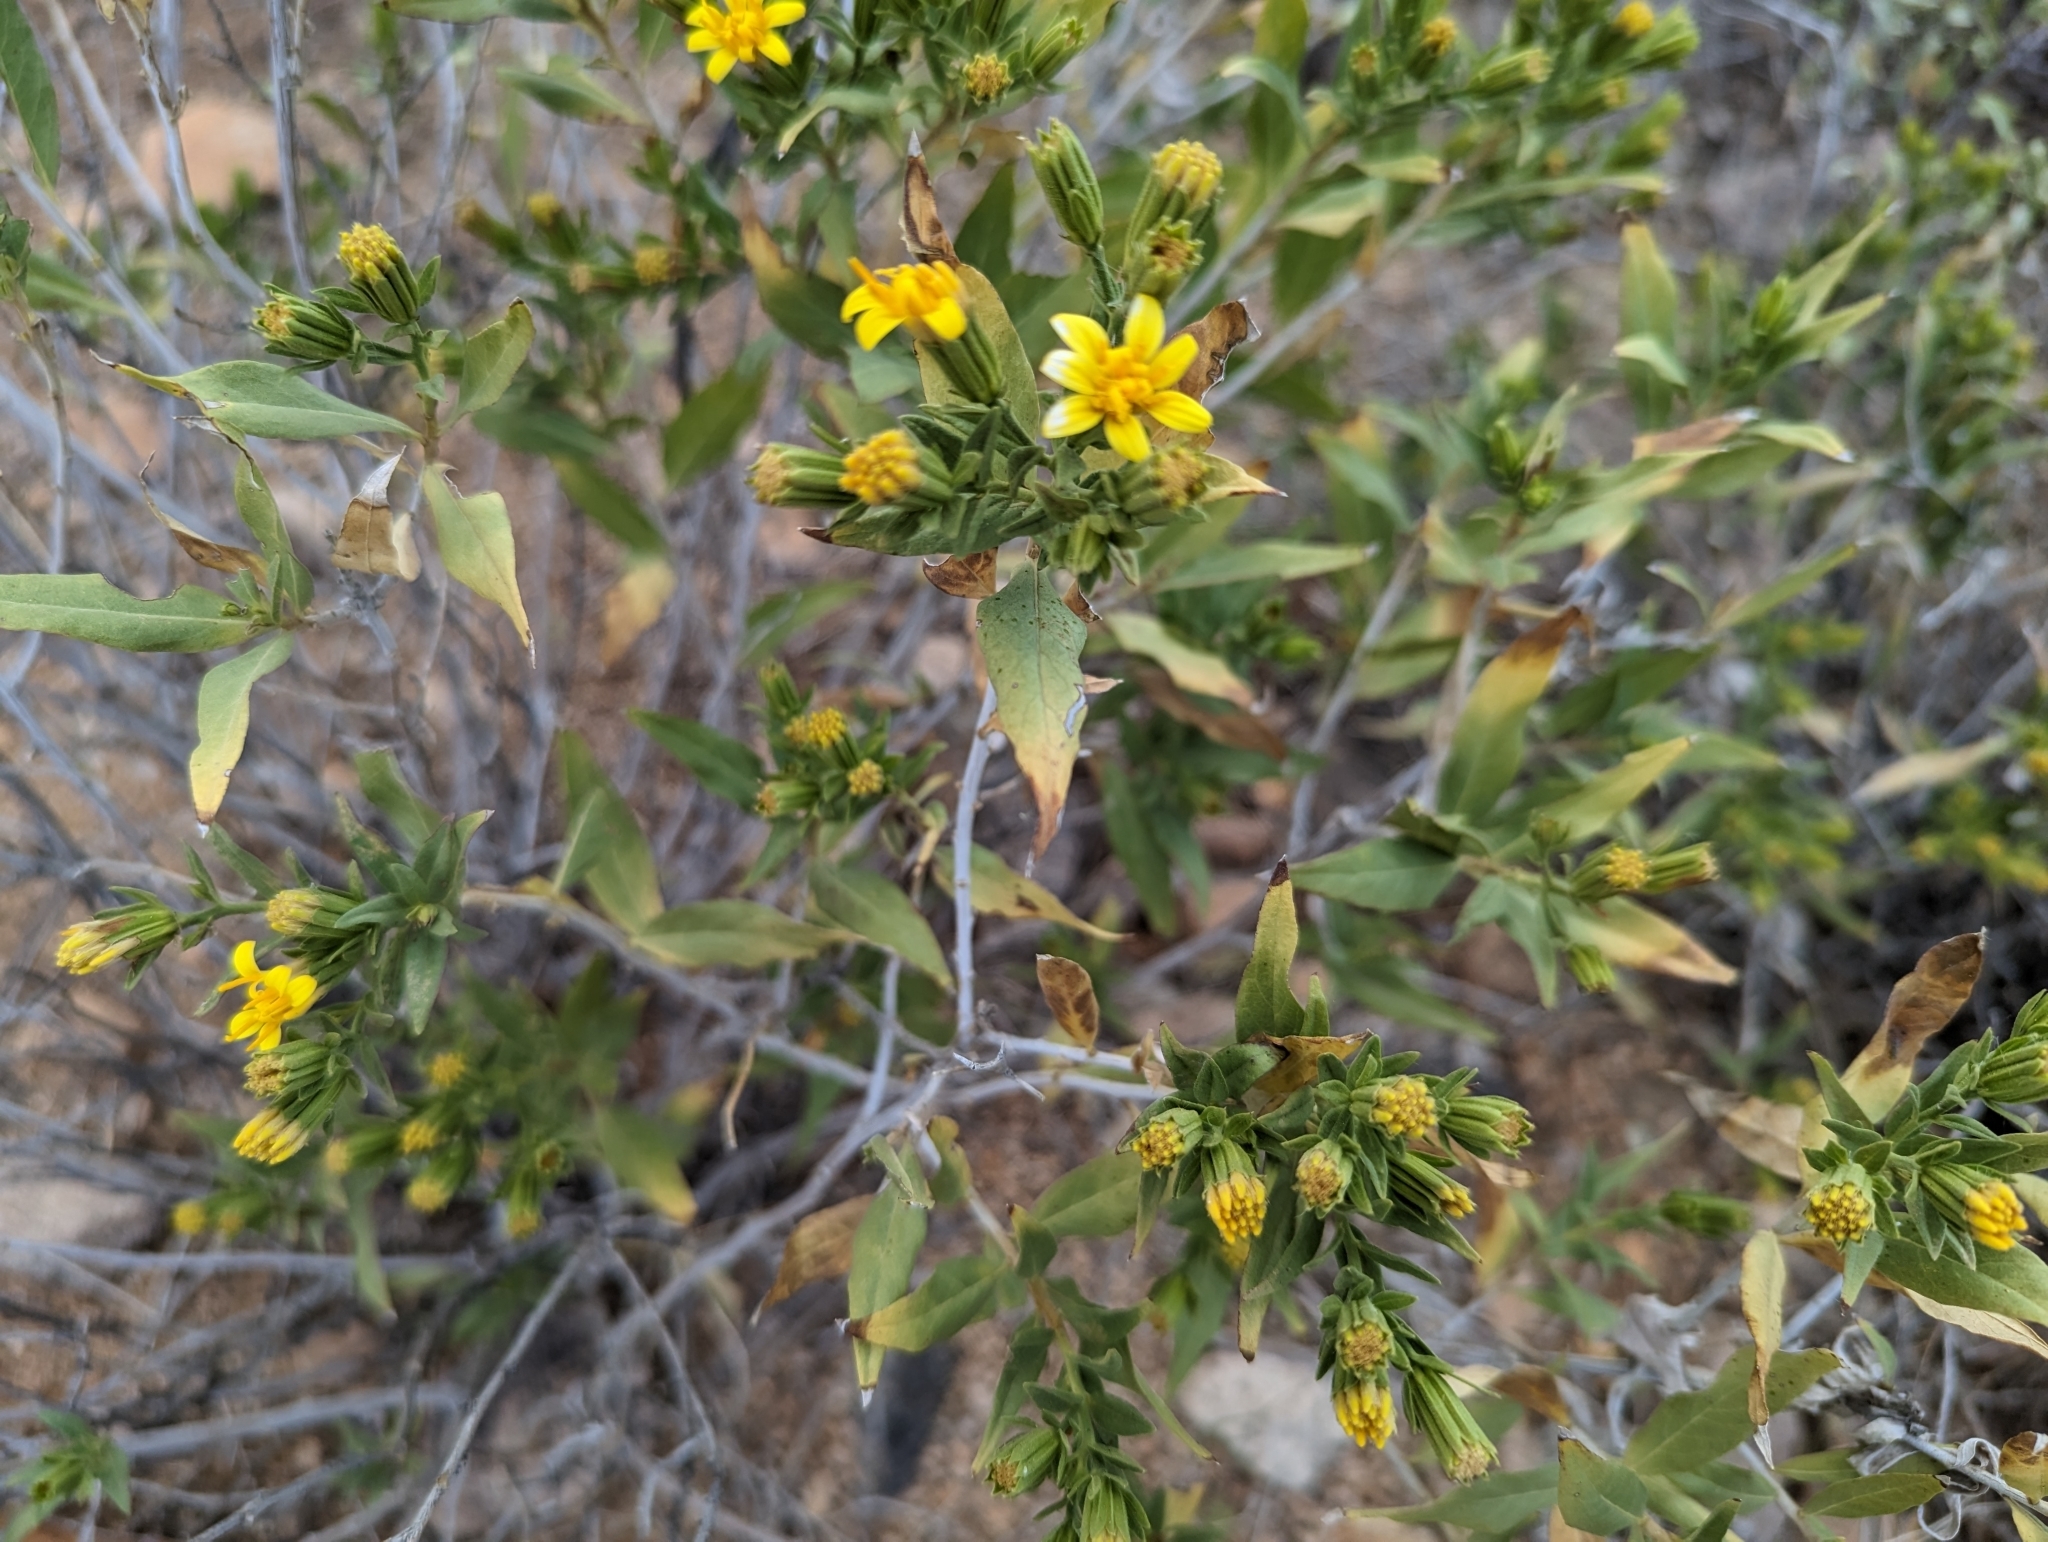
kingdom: Plantae
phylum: Tracheophyta
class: Magnoliopsida
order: Asterales
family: Asteraceae
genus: Trixis
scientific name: Trixis californica
